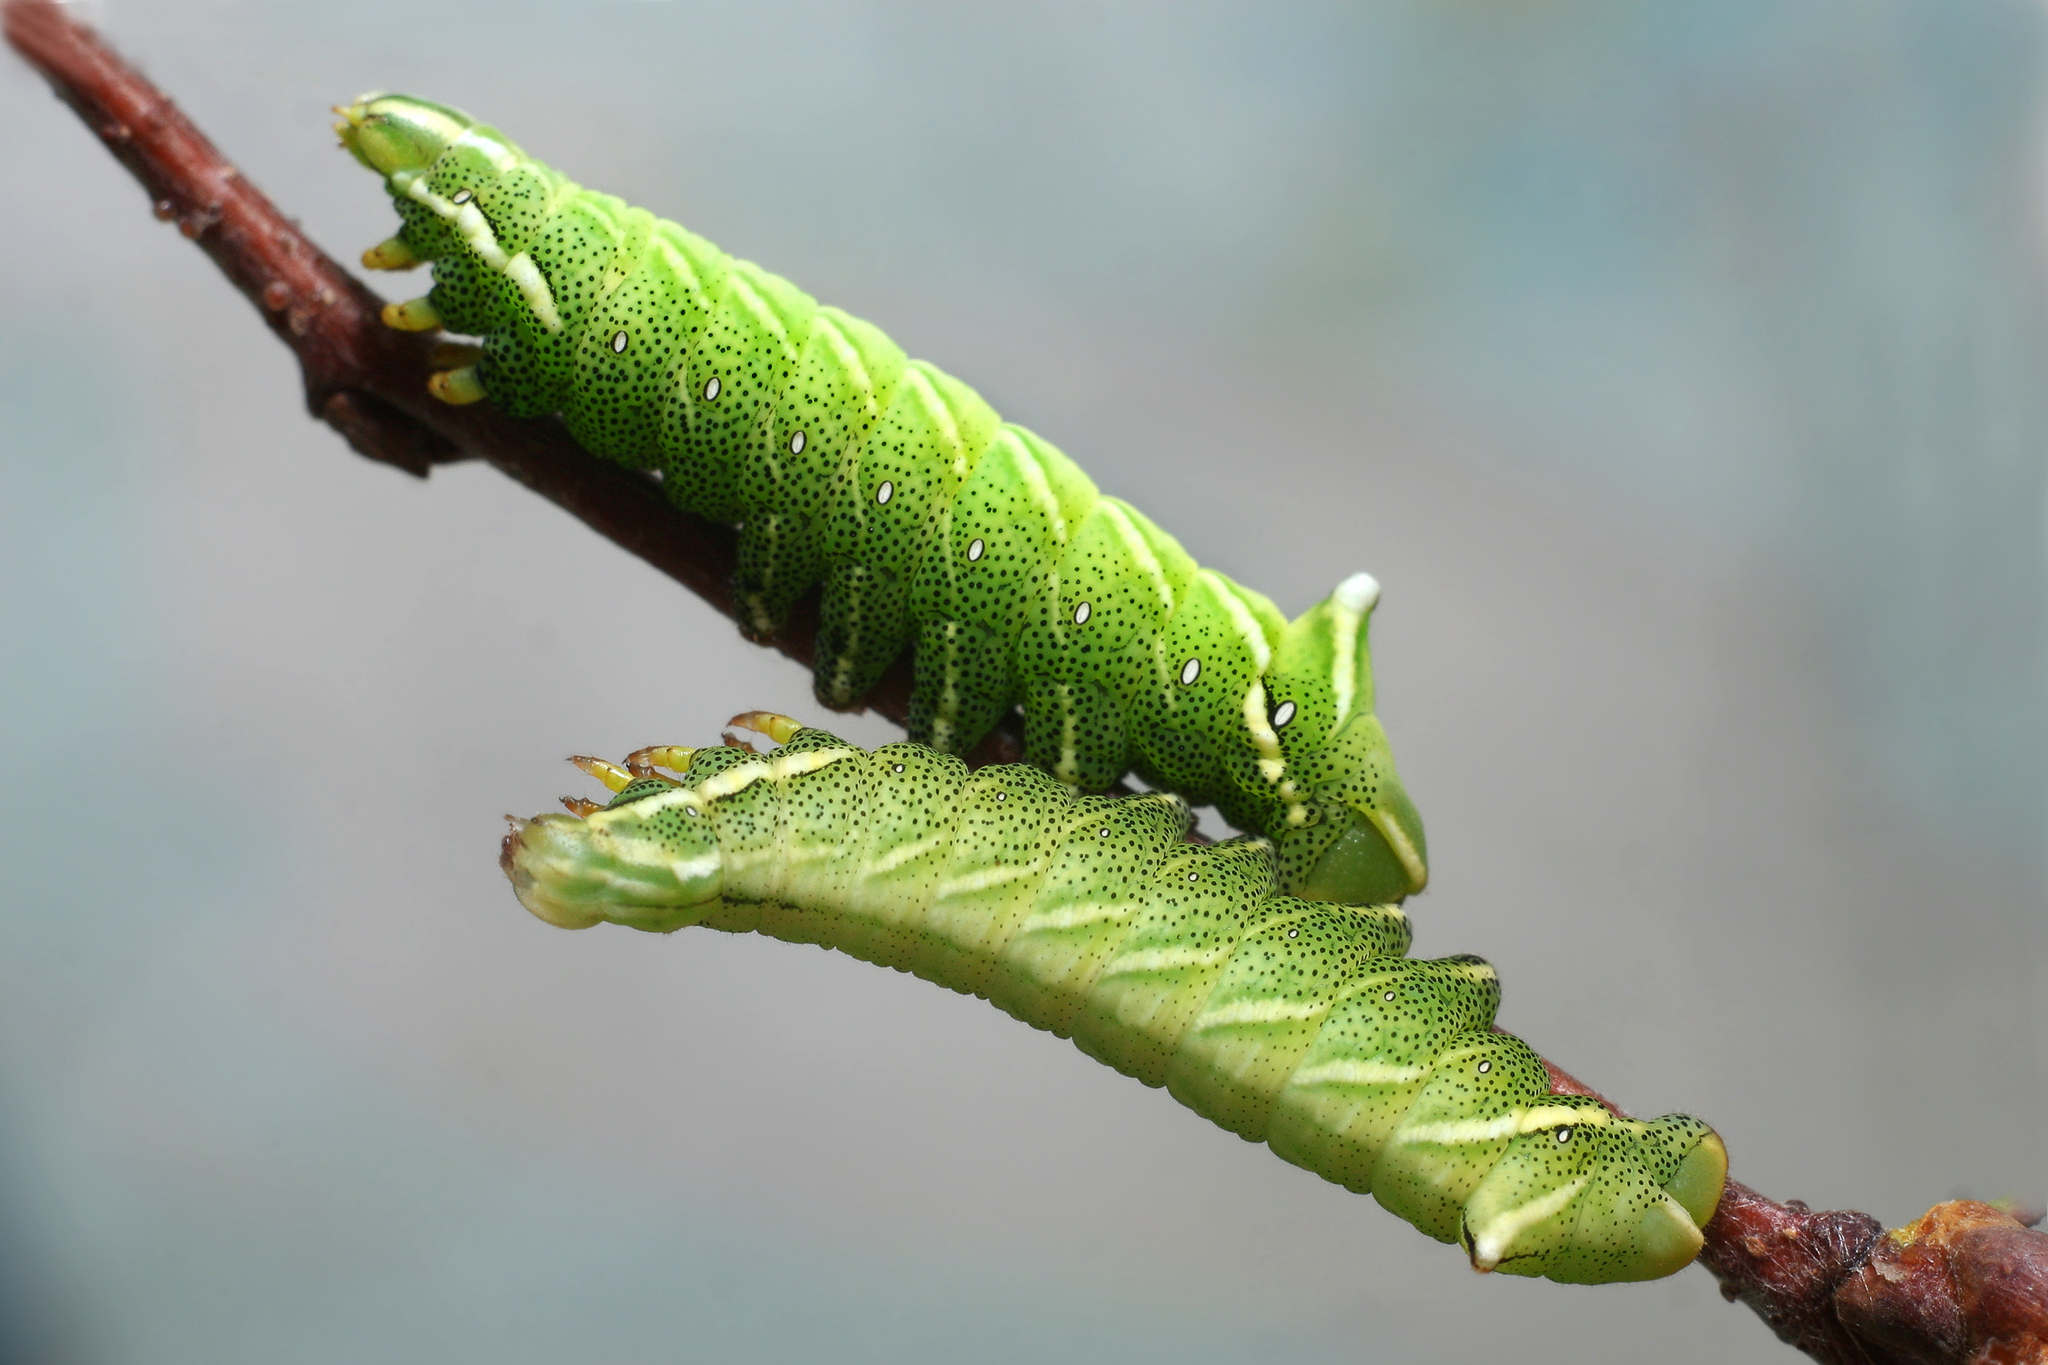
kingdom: Animalia
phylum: Arthropoda
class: Insecta
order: Lepidoptera
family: Endromidae
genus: Endromis
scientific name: Endromis versicolora
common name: Kentish glory
